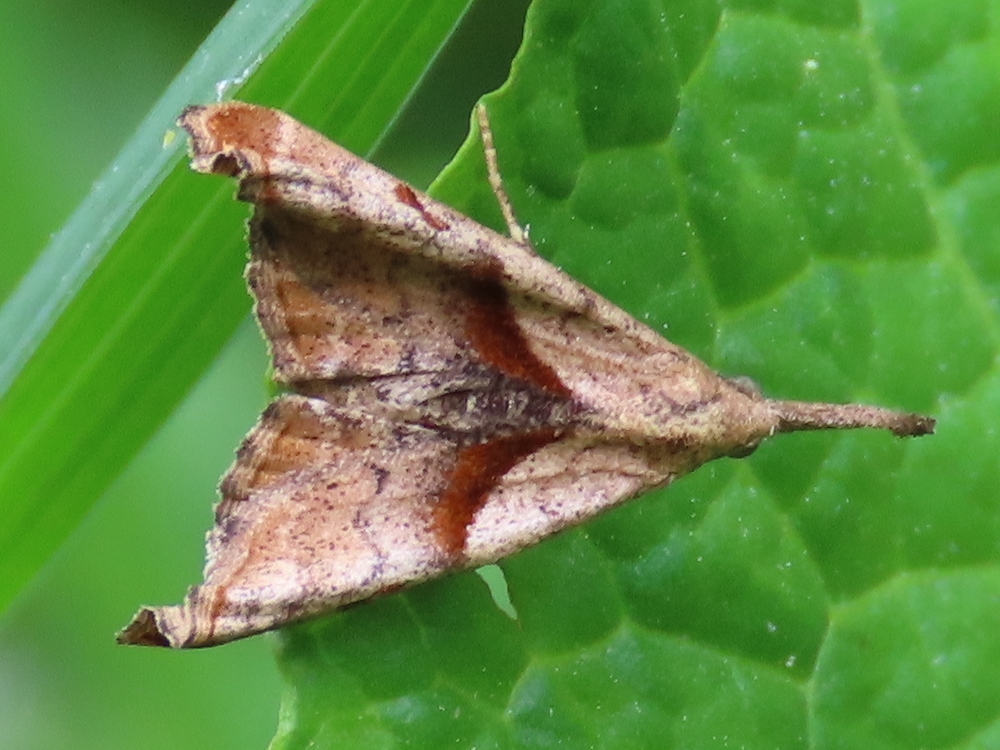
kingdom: Animalia
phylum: Arthropoda
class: Insecta
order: Lepidoptera
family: Erebidae
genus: Palthis
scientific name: Palthis angulalis
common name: Dark-spotted palthis moth
